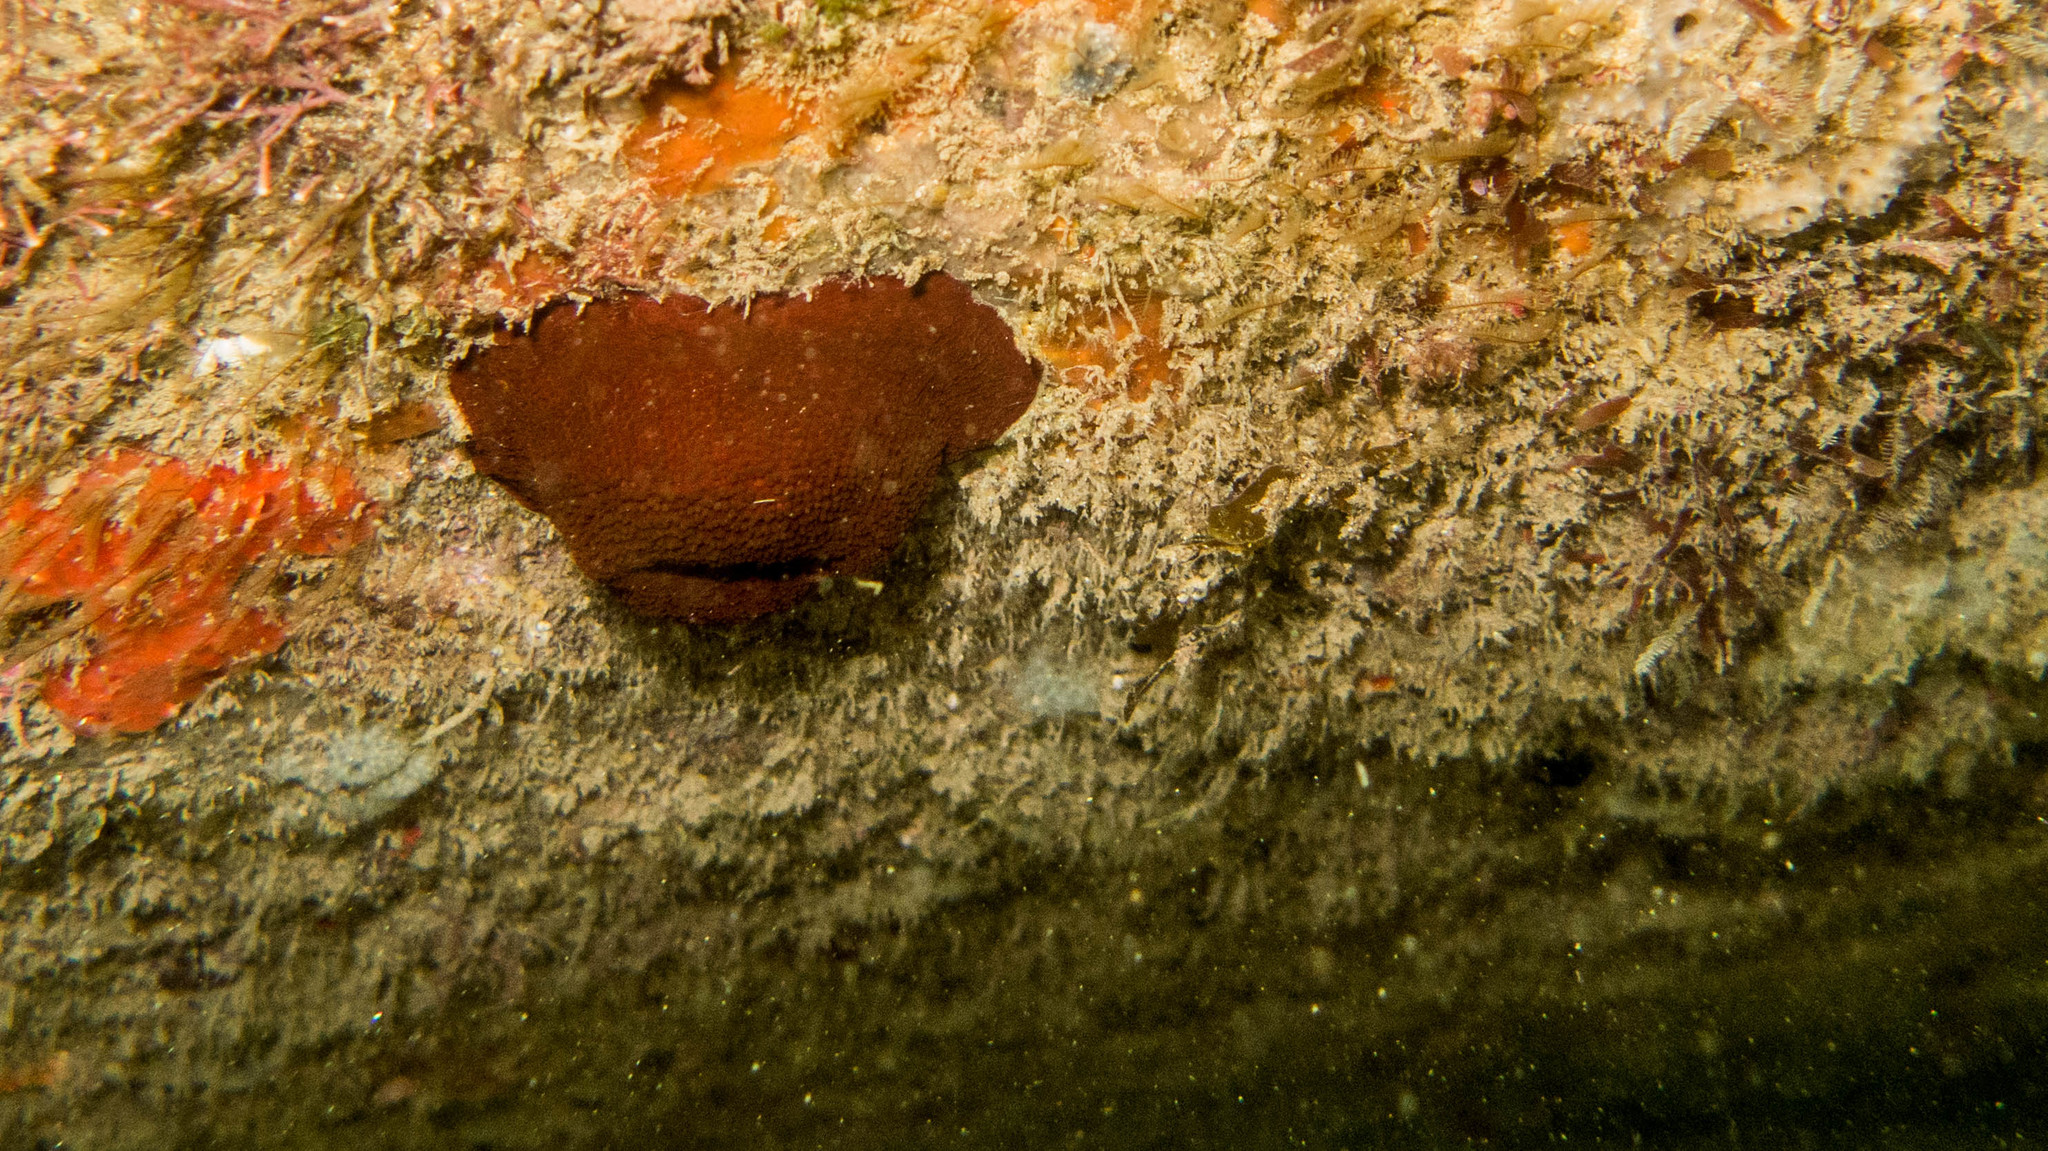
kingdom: Animalia
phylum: Cnidaria
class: Anthozoa
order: Actiniaria
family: Actiniidae
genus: Bunodosoma
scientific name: Bunodosoma caissarum
